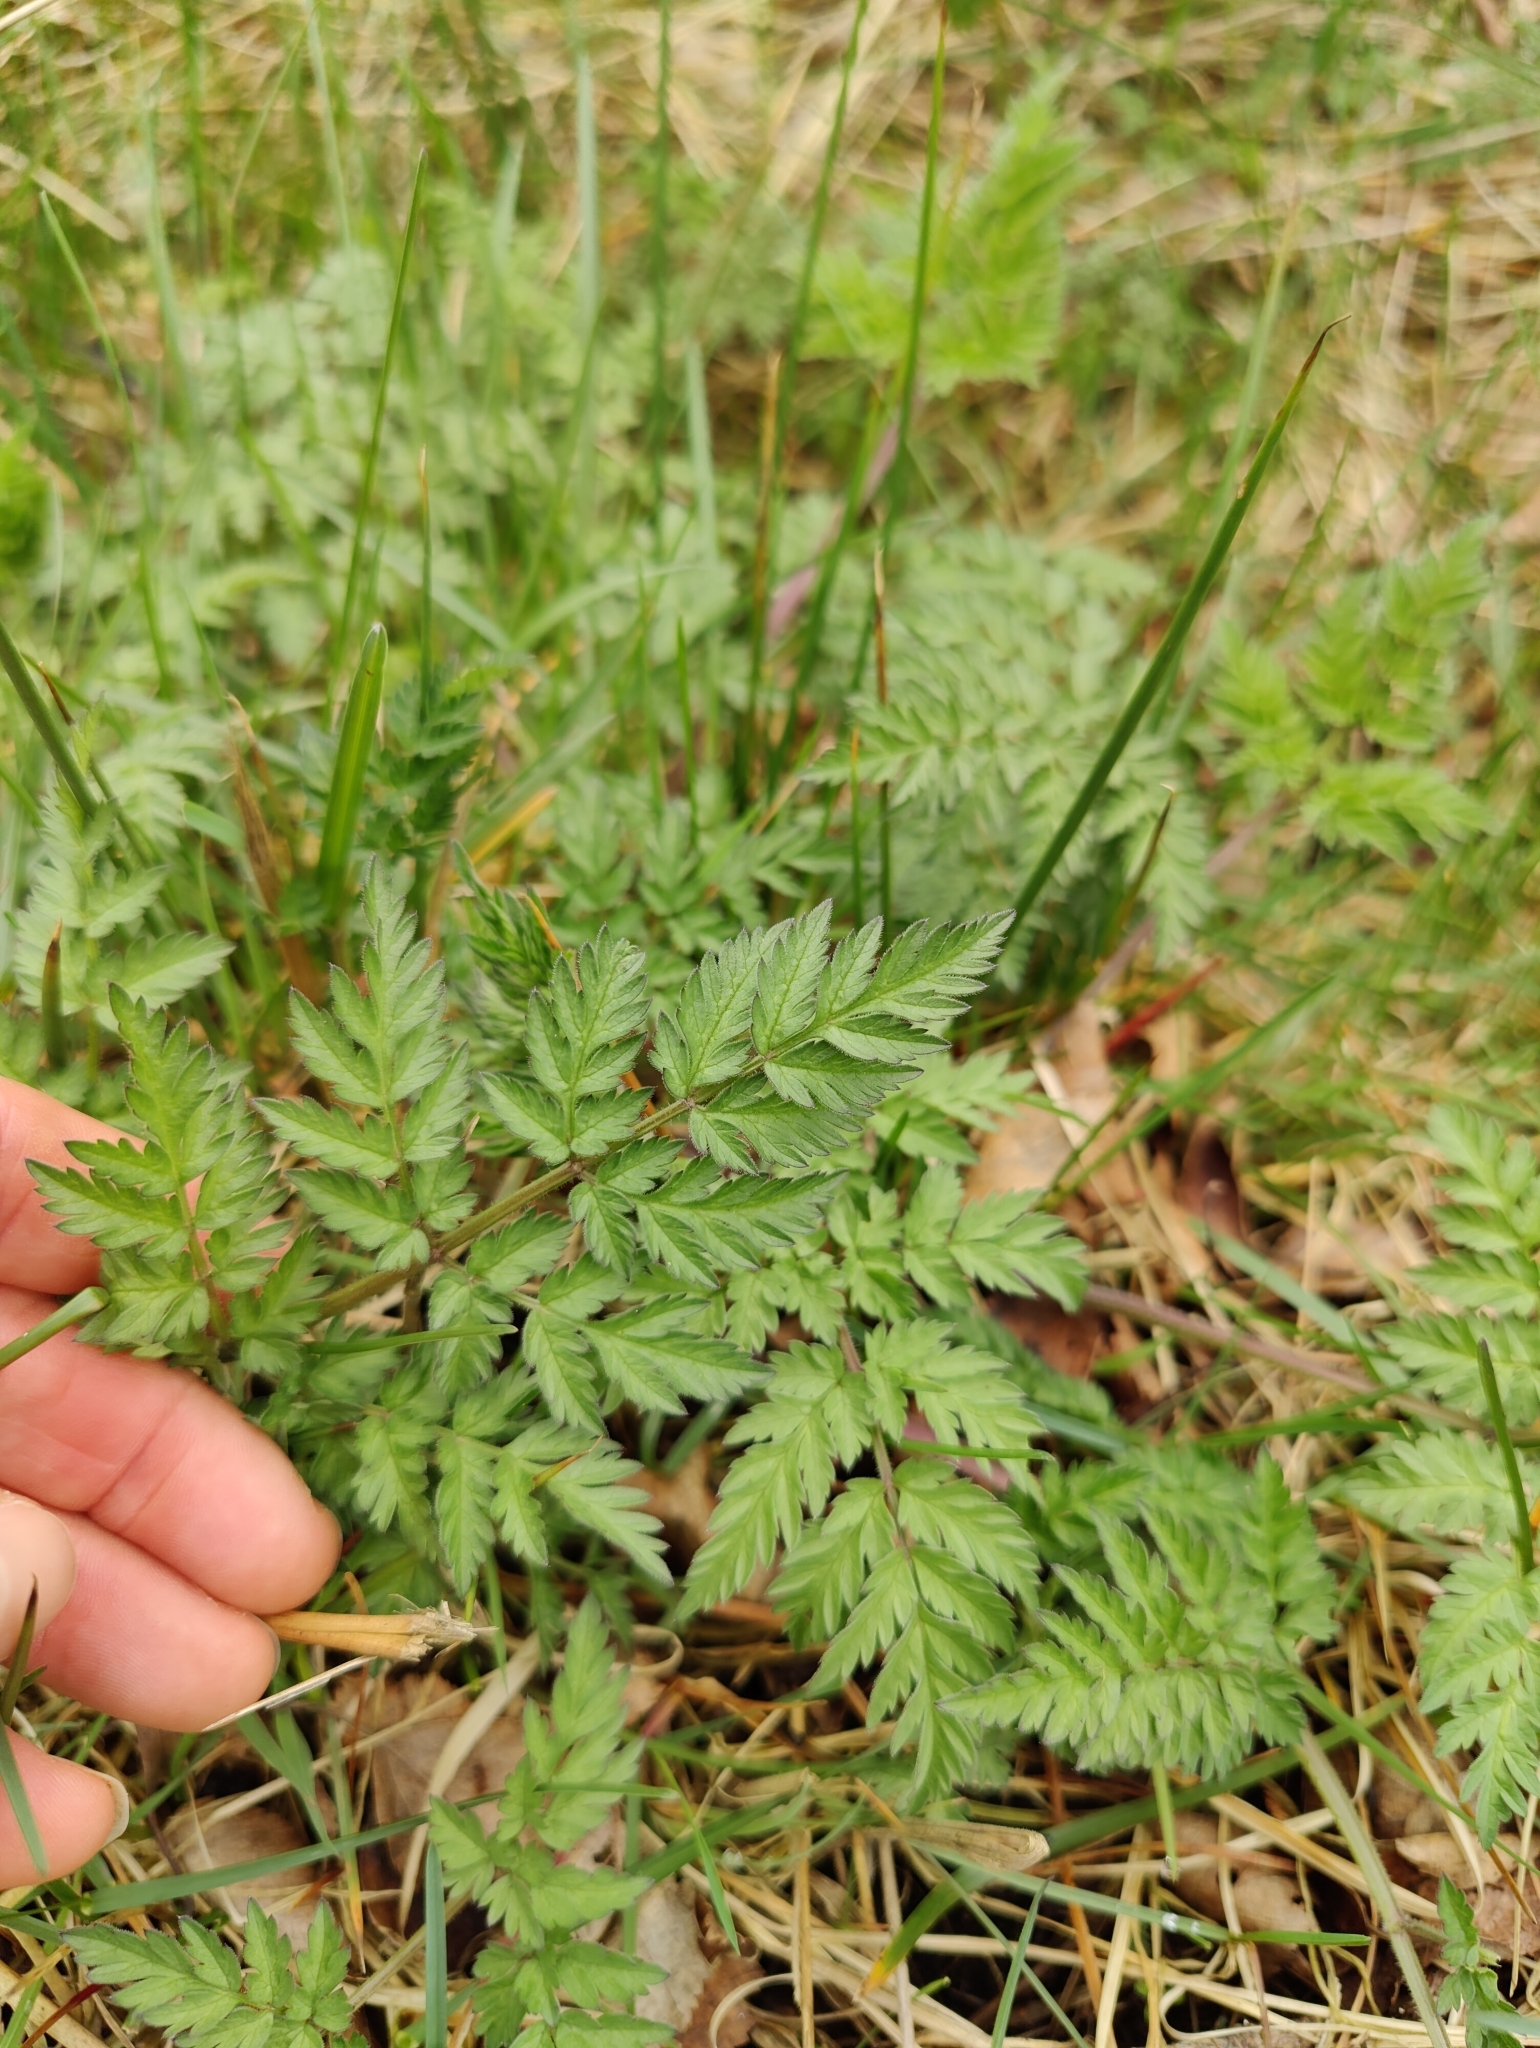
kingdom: Plantae
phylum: Tracheophyta
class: Magnoliopsida
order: Apiales
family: Apiaceae
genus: Anthriscus
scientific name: Anthriscus sylvestris
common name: Cow parsley
